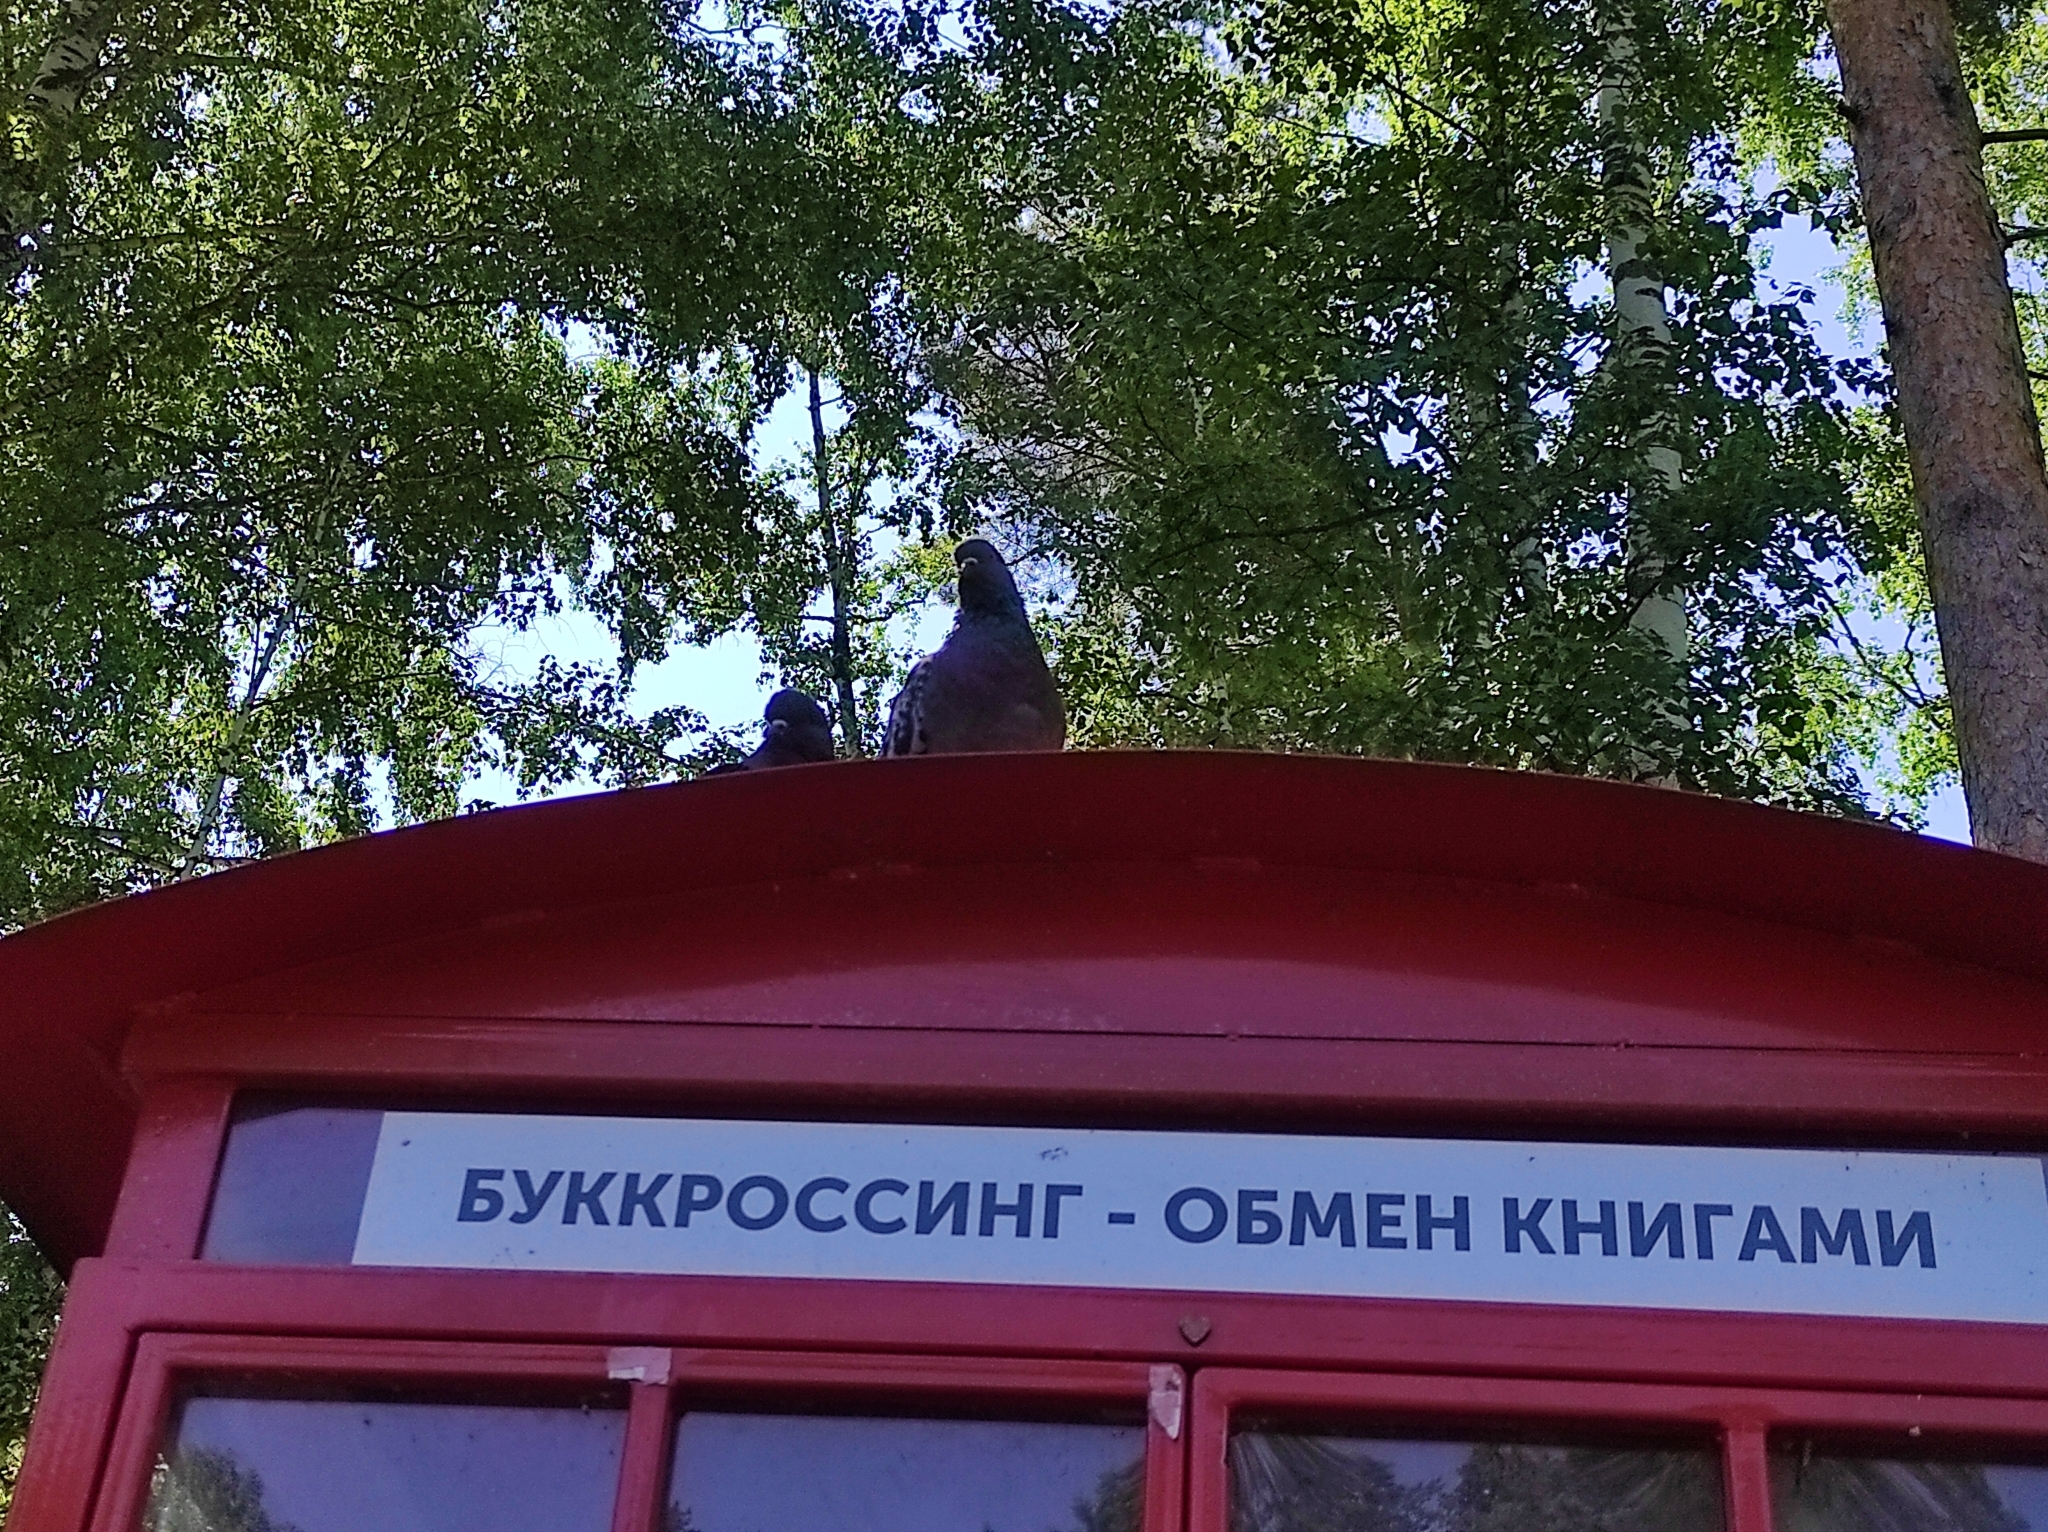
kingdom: Animalia
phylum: Chordata
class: Aves
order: Columbiformes
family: Columbidae
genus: Columba
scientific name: Columba livia
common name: Rock pigeon
